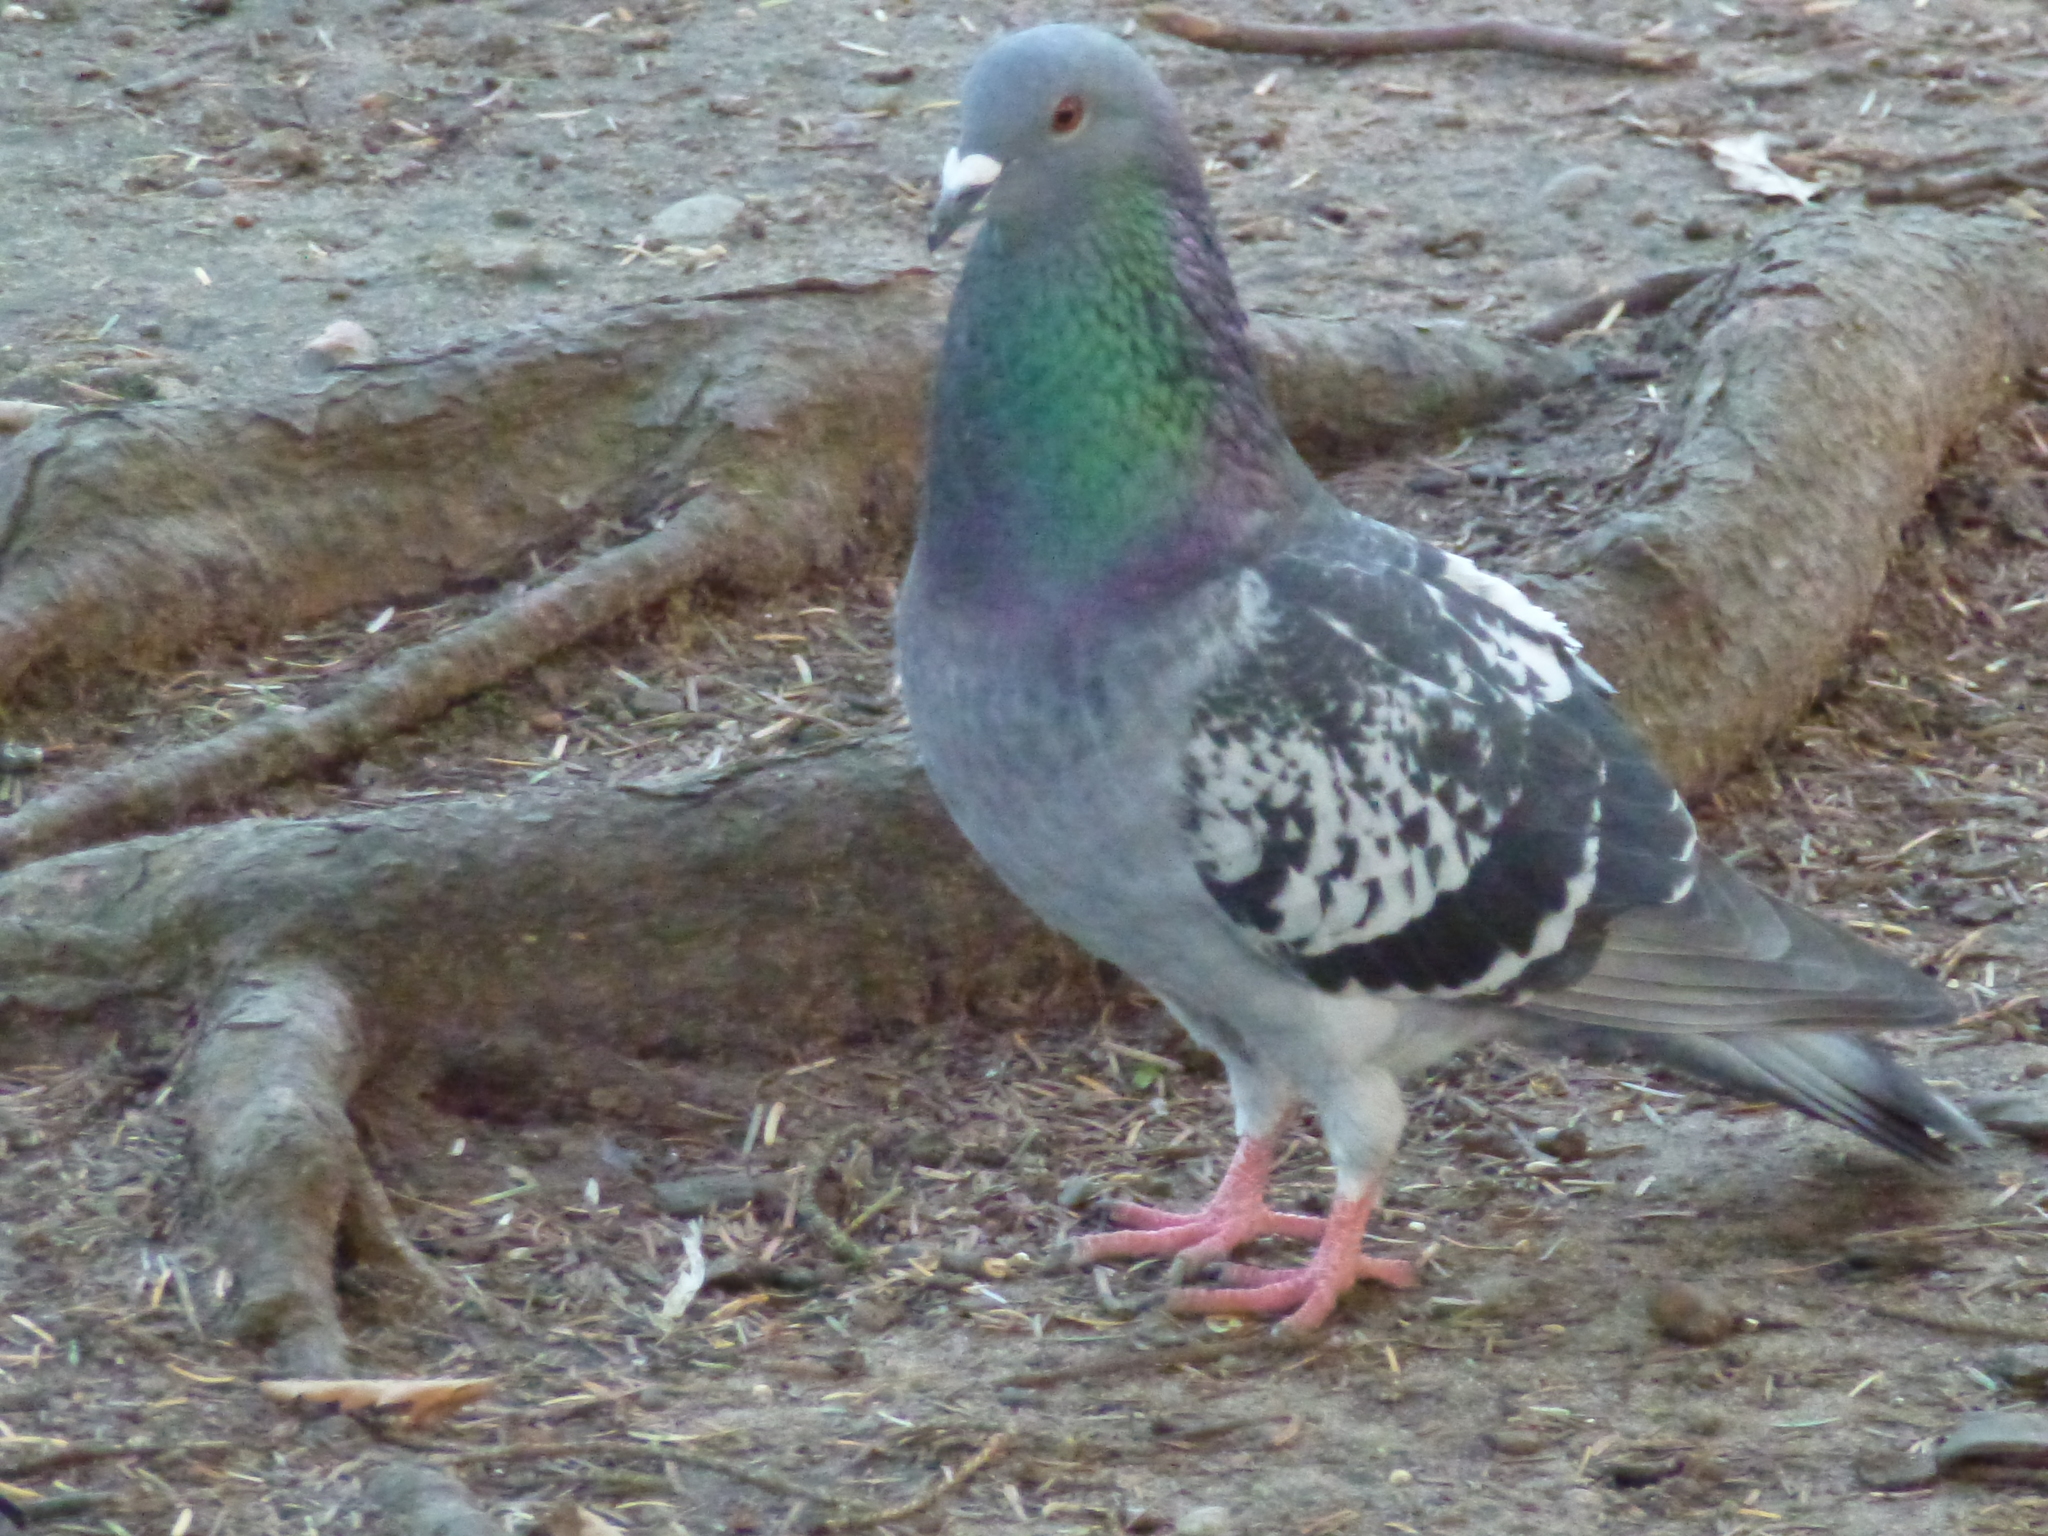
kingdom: Animalia
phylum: Chordata
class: Aves
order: Columbiformes
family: Columbidae
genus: Columba
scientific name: Columba livia
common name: Rock pigeon
